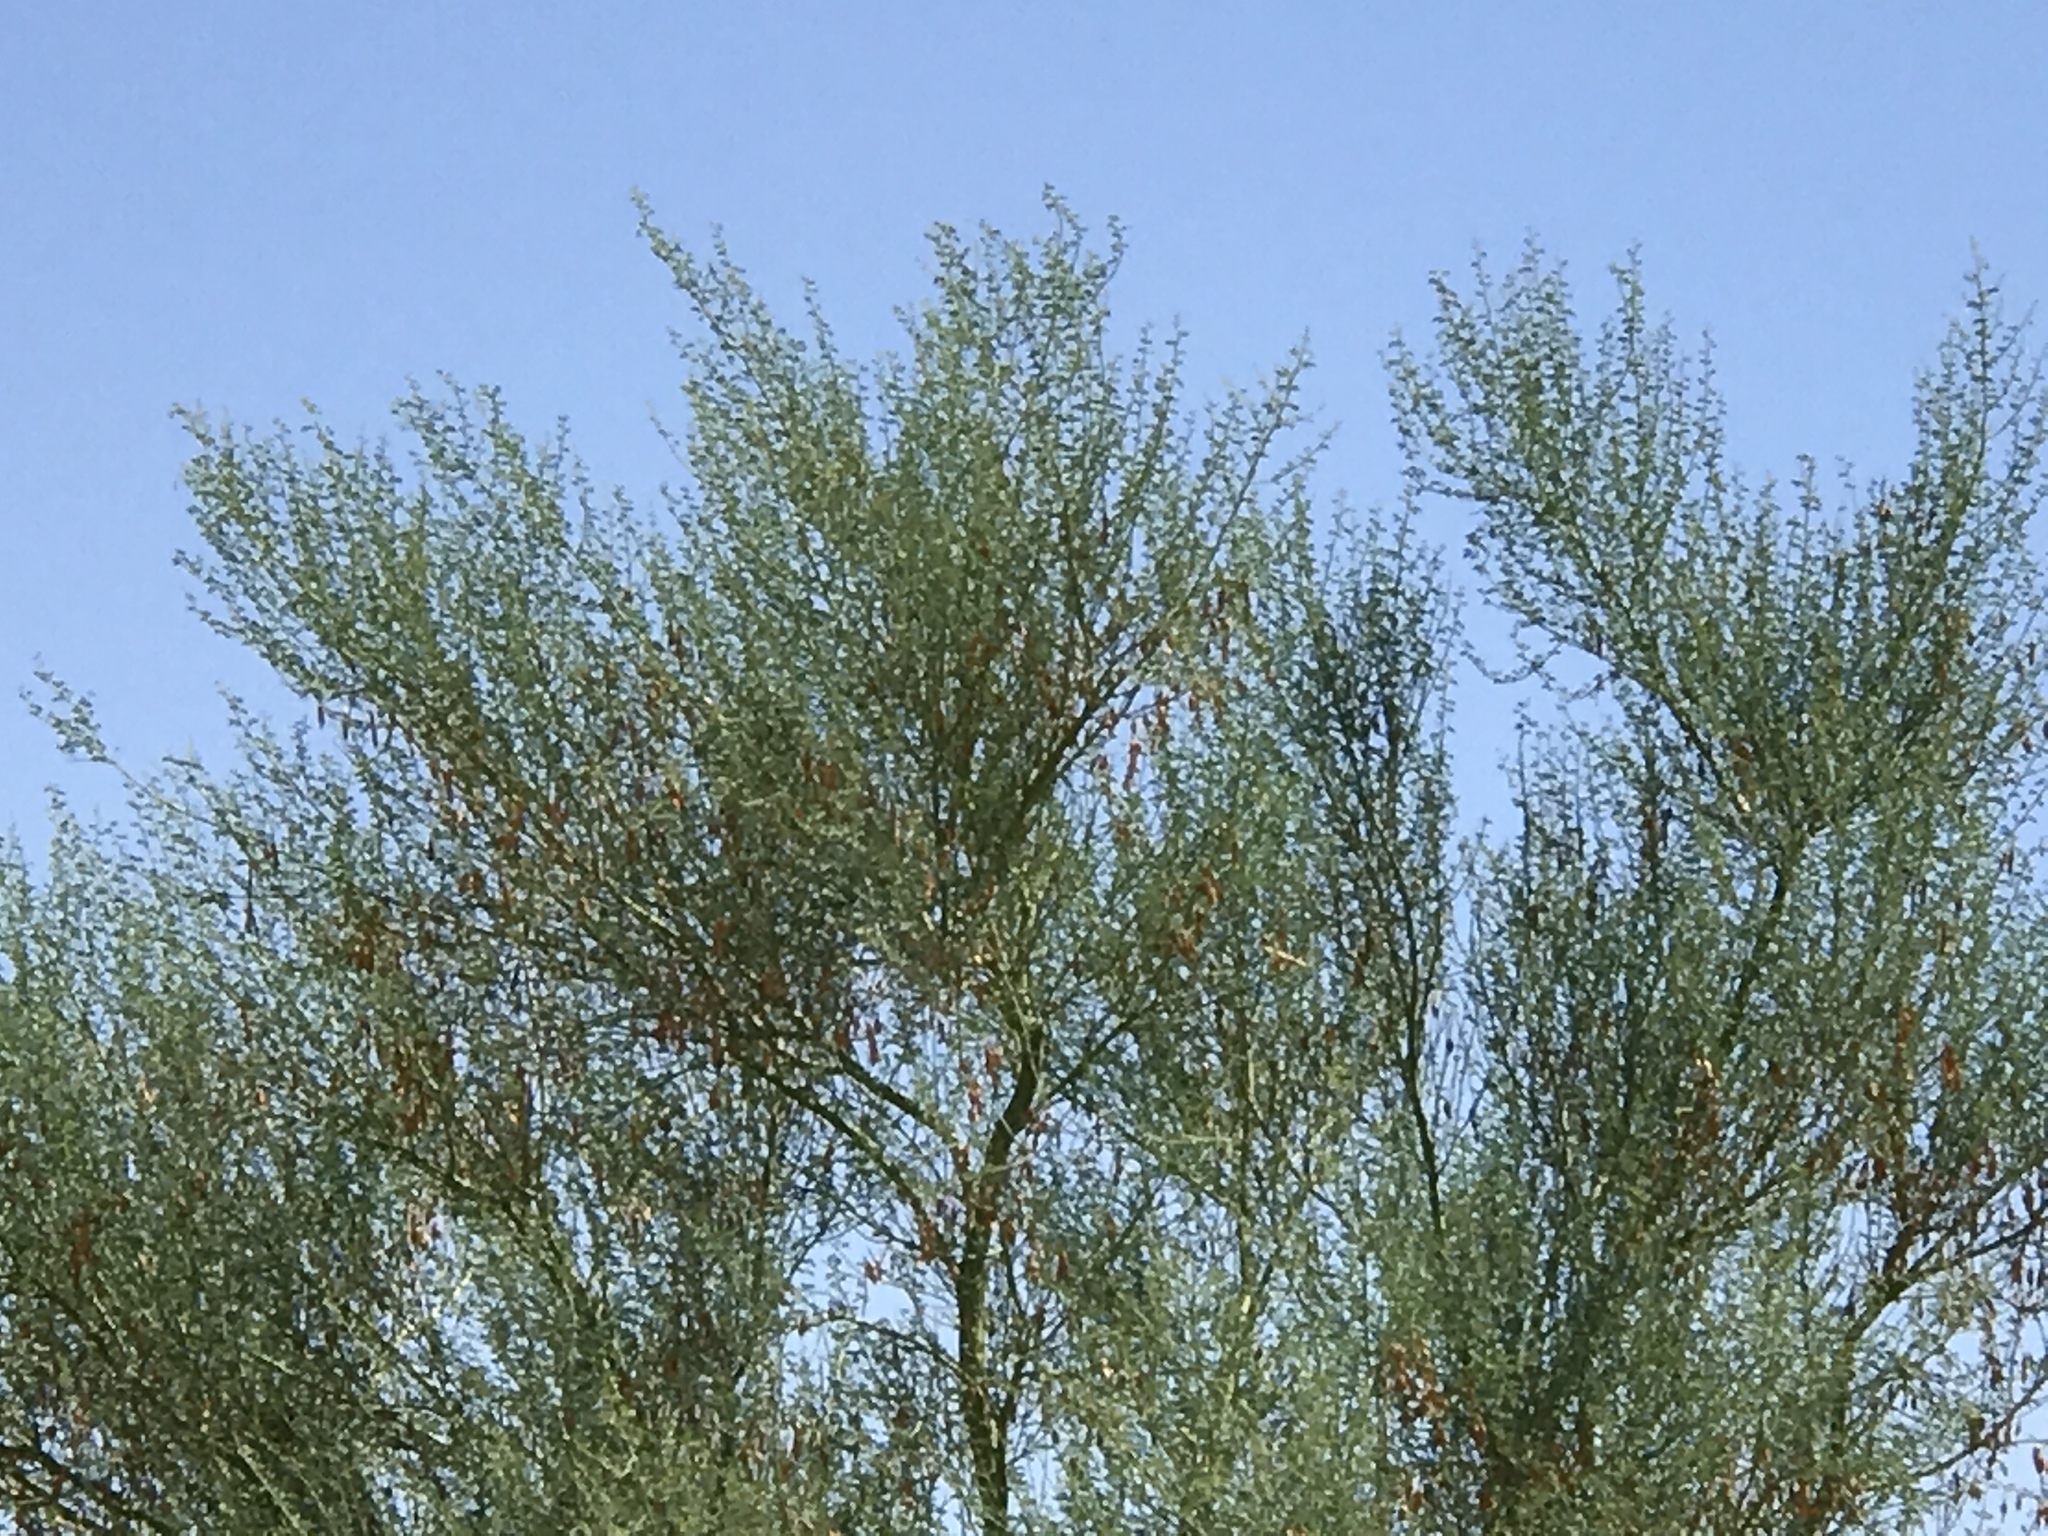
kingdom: Plantae
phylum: Tracheophyta
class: Magnoliopsida
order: Fabales
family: Fabaceae
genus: Parkinsonia
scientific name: Parkinsonia florida
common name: Blue paloverde
